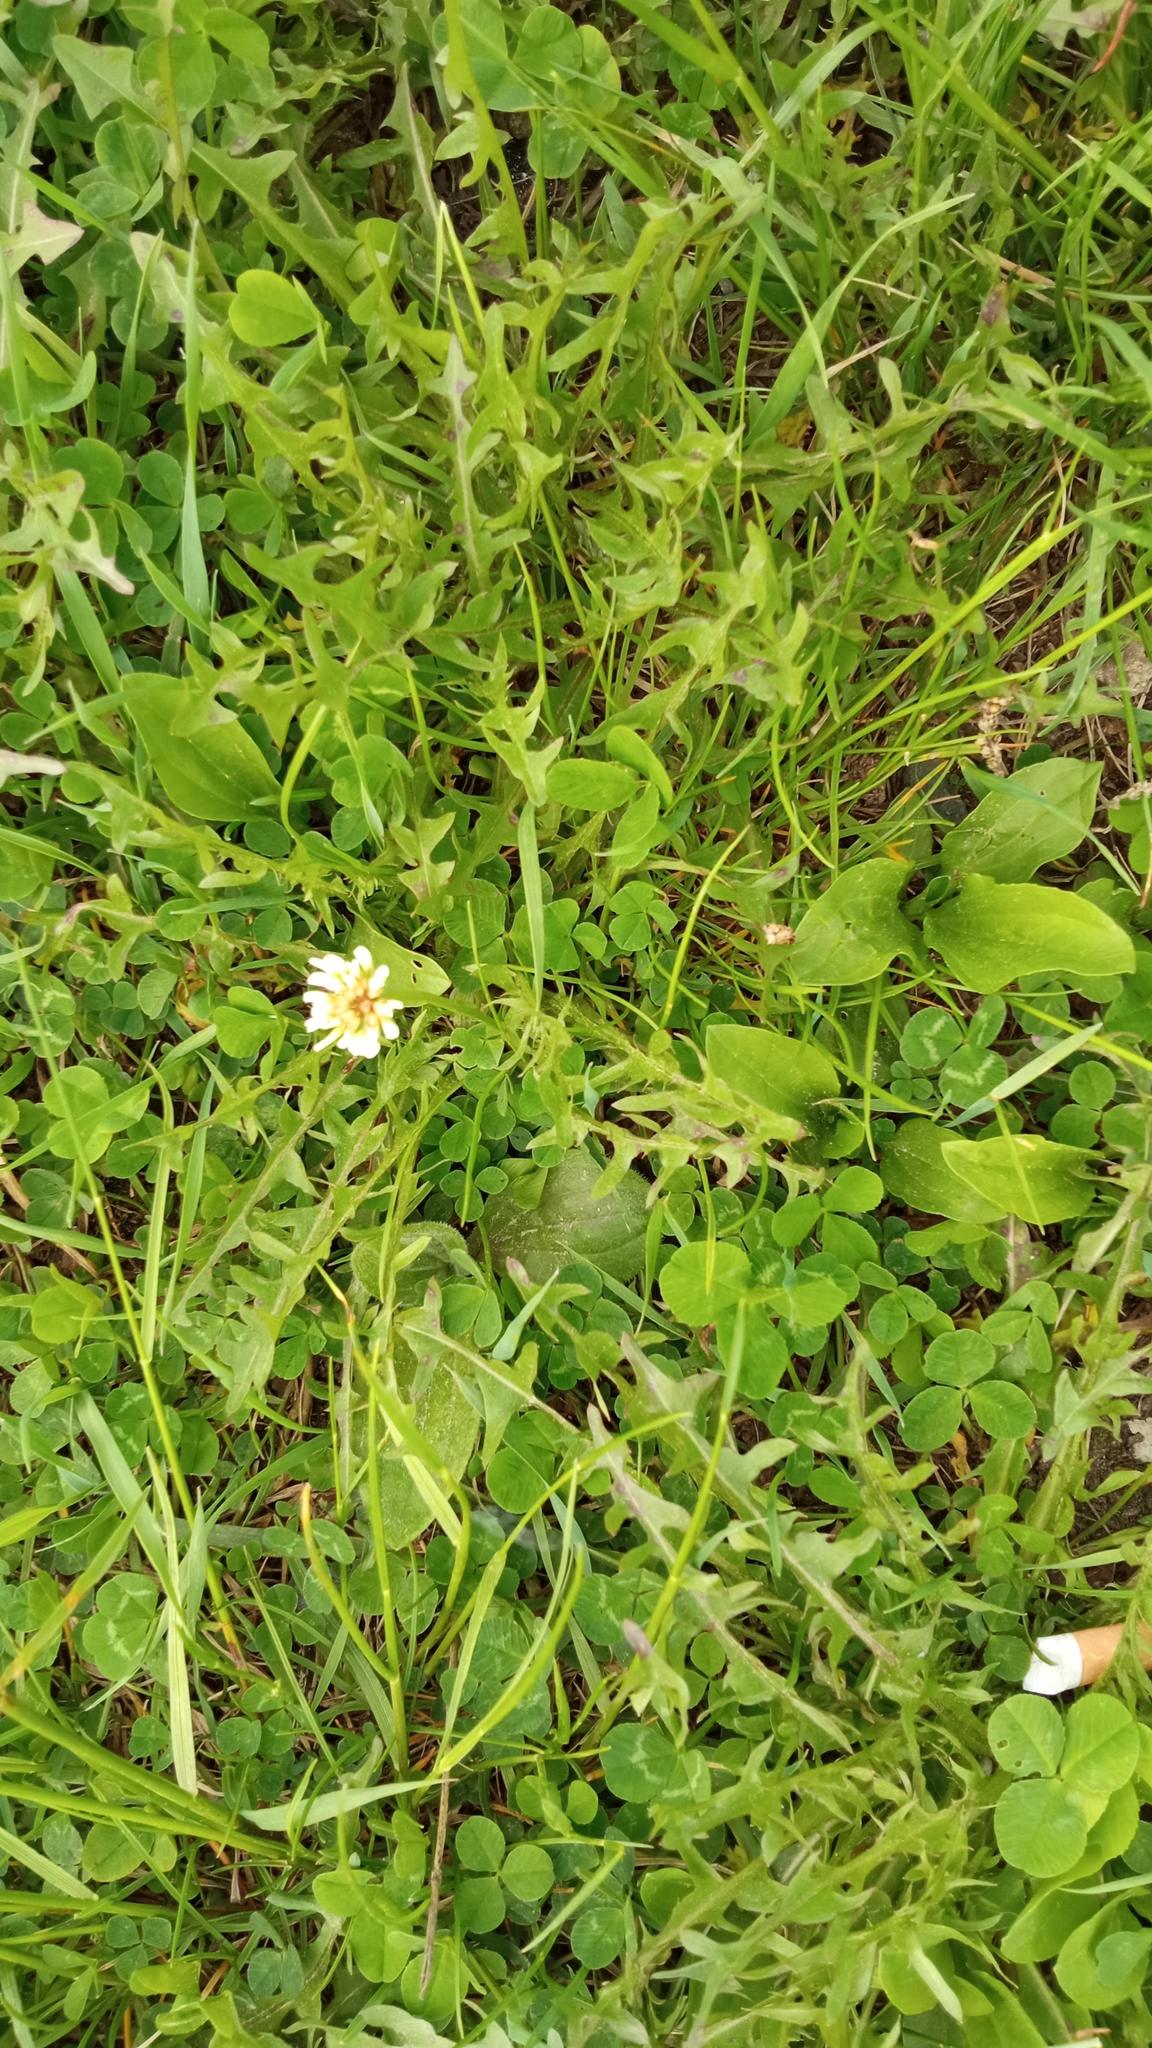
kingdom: Plantae
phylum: Tracheophyta
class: Magnoliopsida
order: Fabales
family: Fabaceae
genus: Trifolium
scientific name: Trifolium repens
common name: White clover
